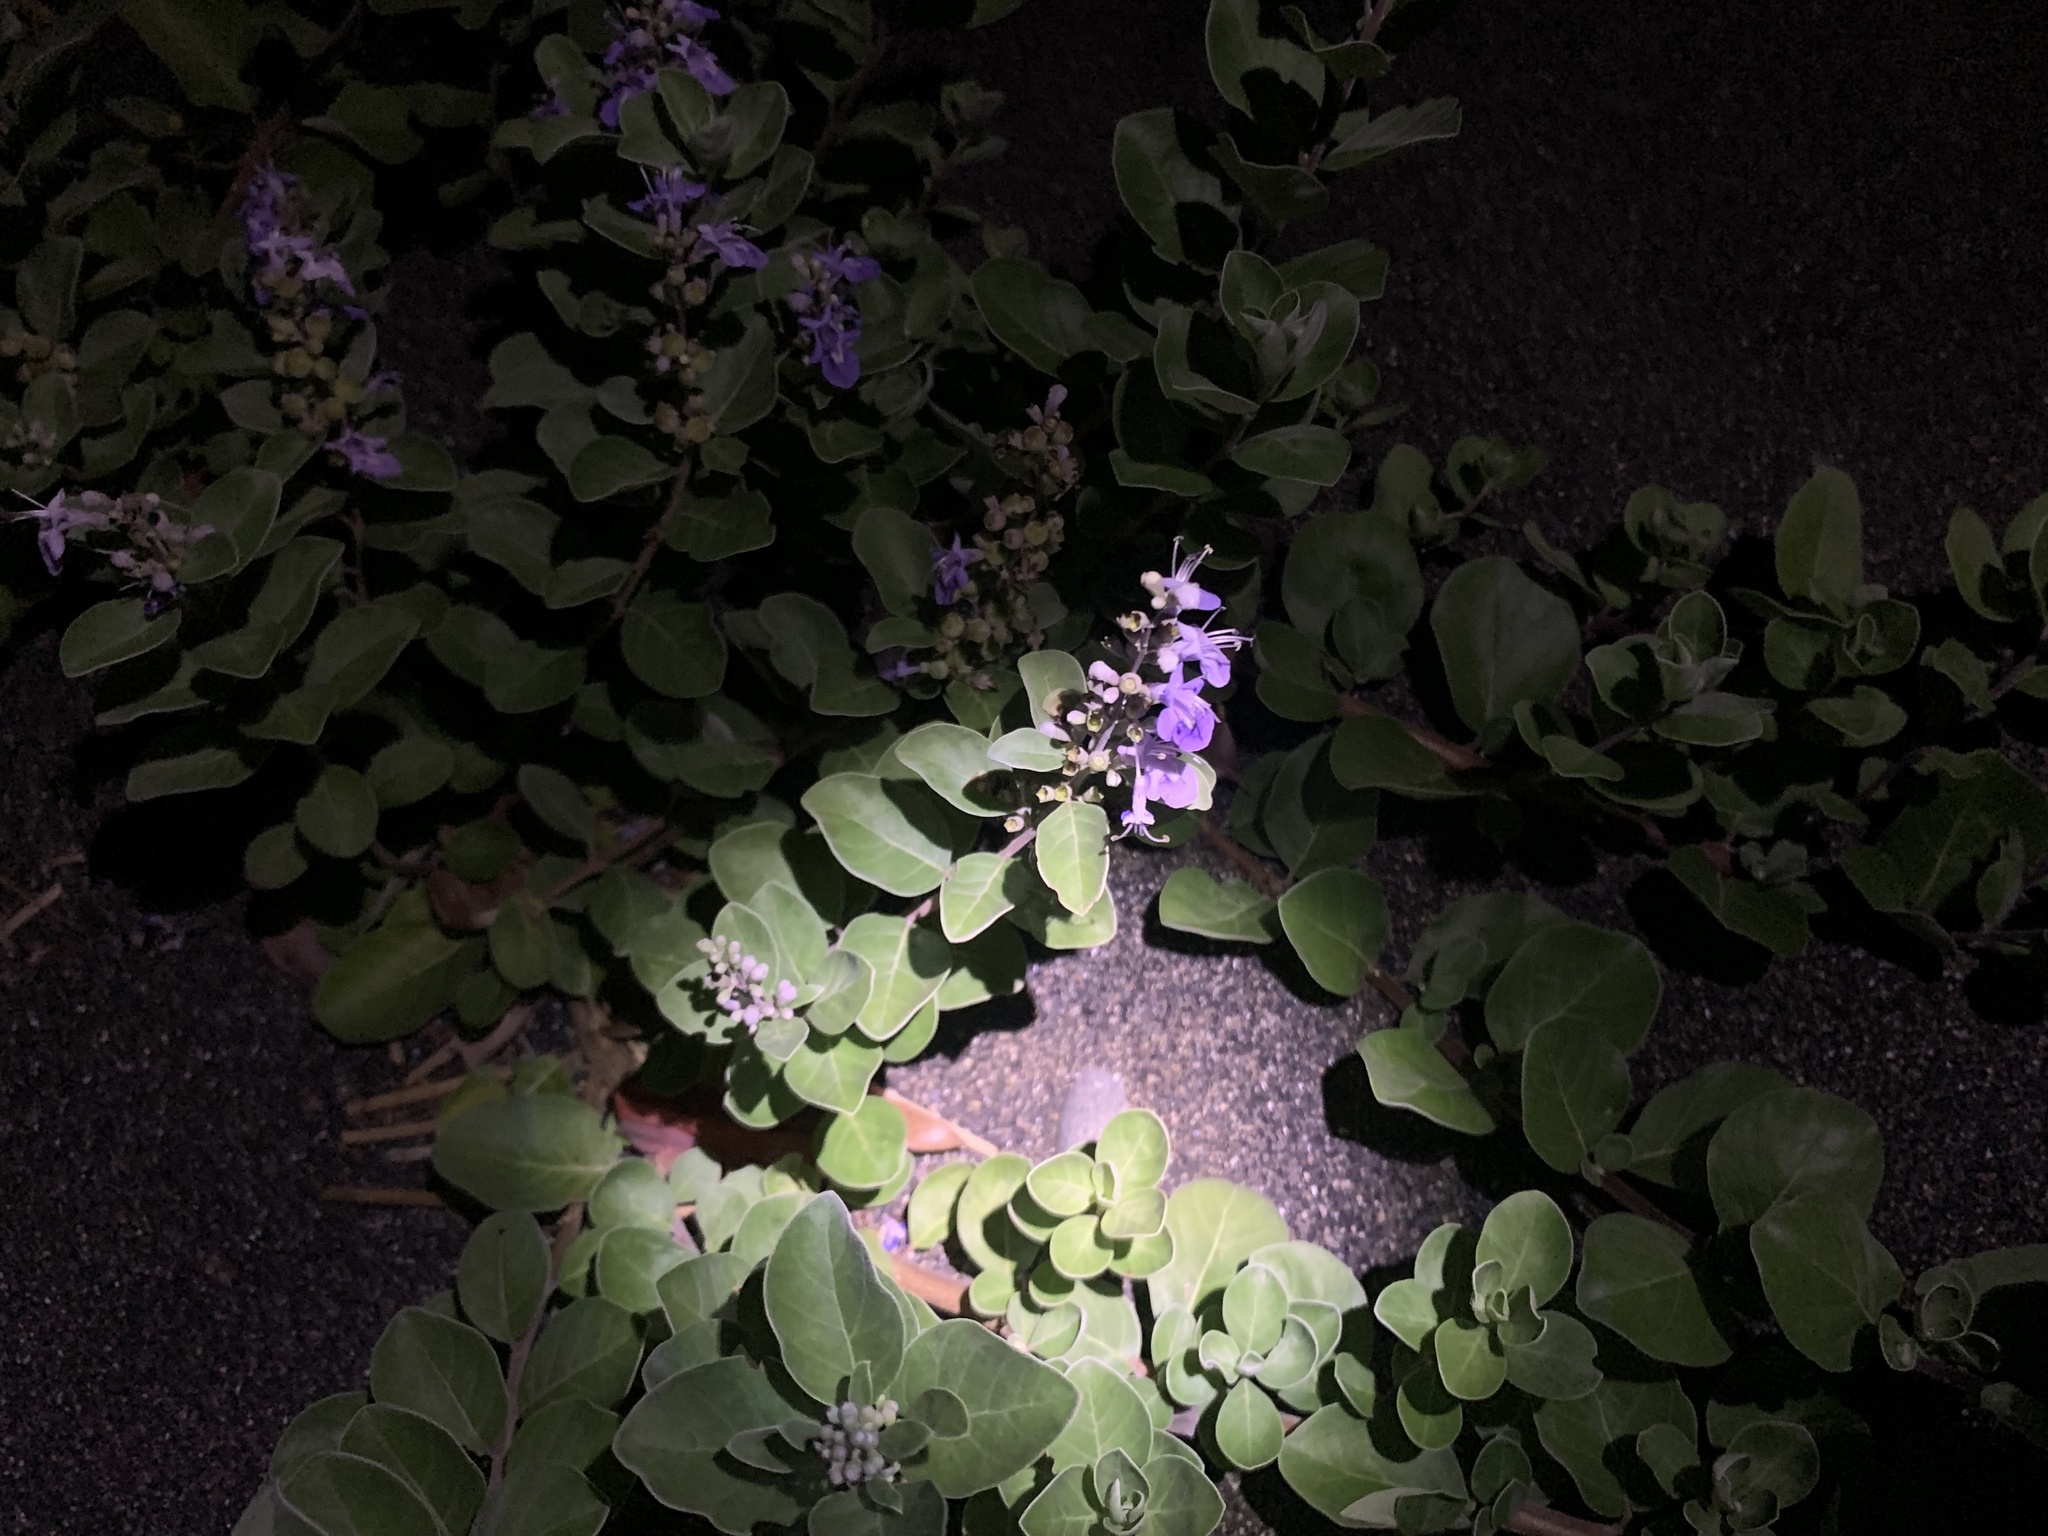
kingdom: Plantae
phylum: Tracheophyta
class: Magnoliopsida
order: Lamiales
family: Lamiaceae
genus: Vitex
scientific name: Vitex rotundifolia
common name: Beach vitex
